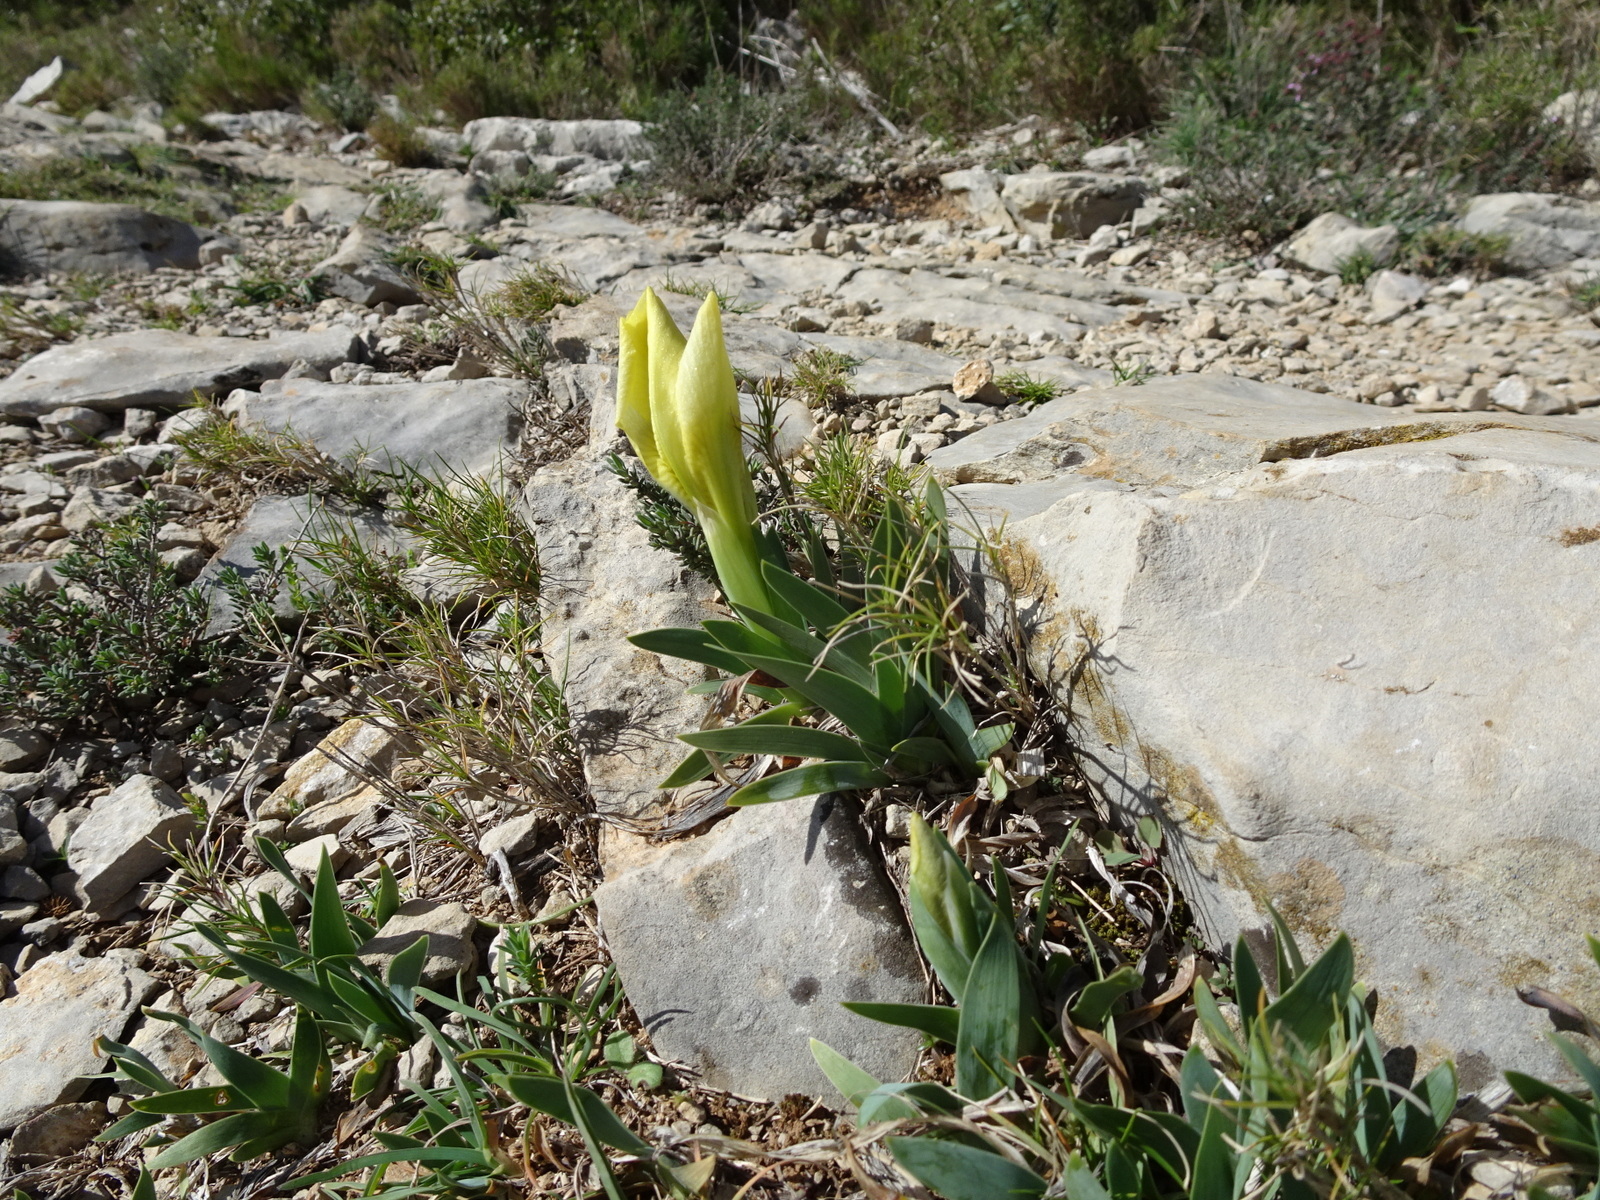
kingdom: Plantae
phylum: Tracheophyta
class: Liliopsida
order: Asparagales
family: Iridaceae
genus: Iris
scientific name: Iris lutescens
